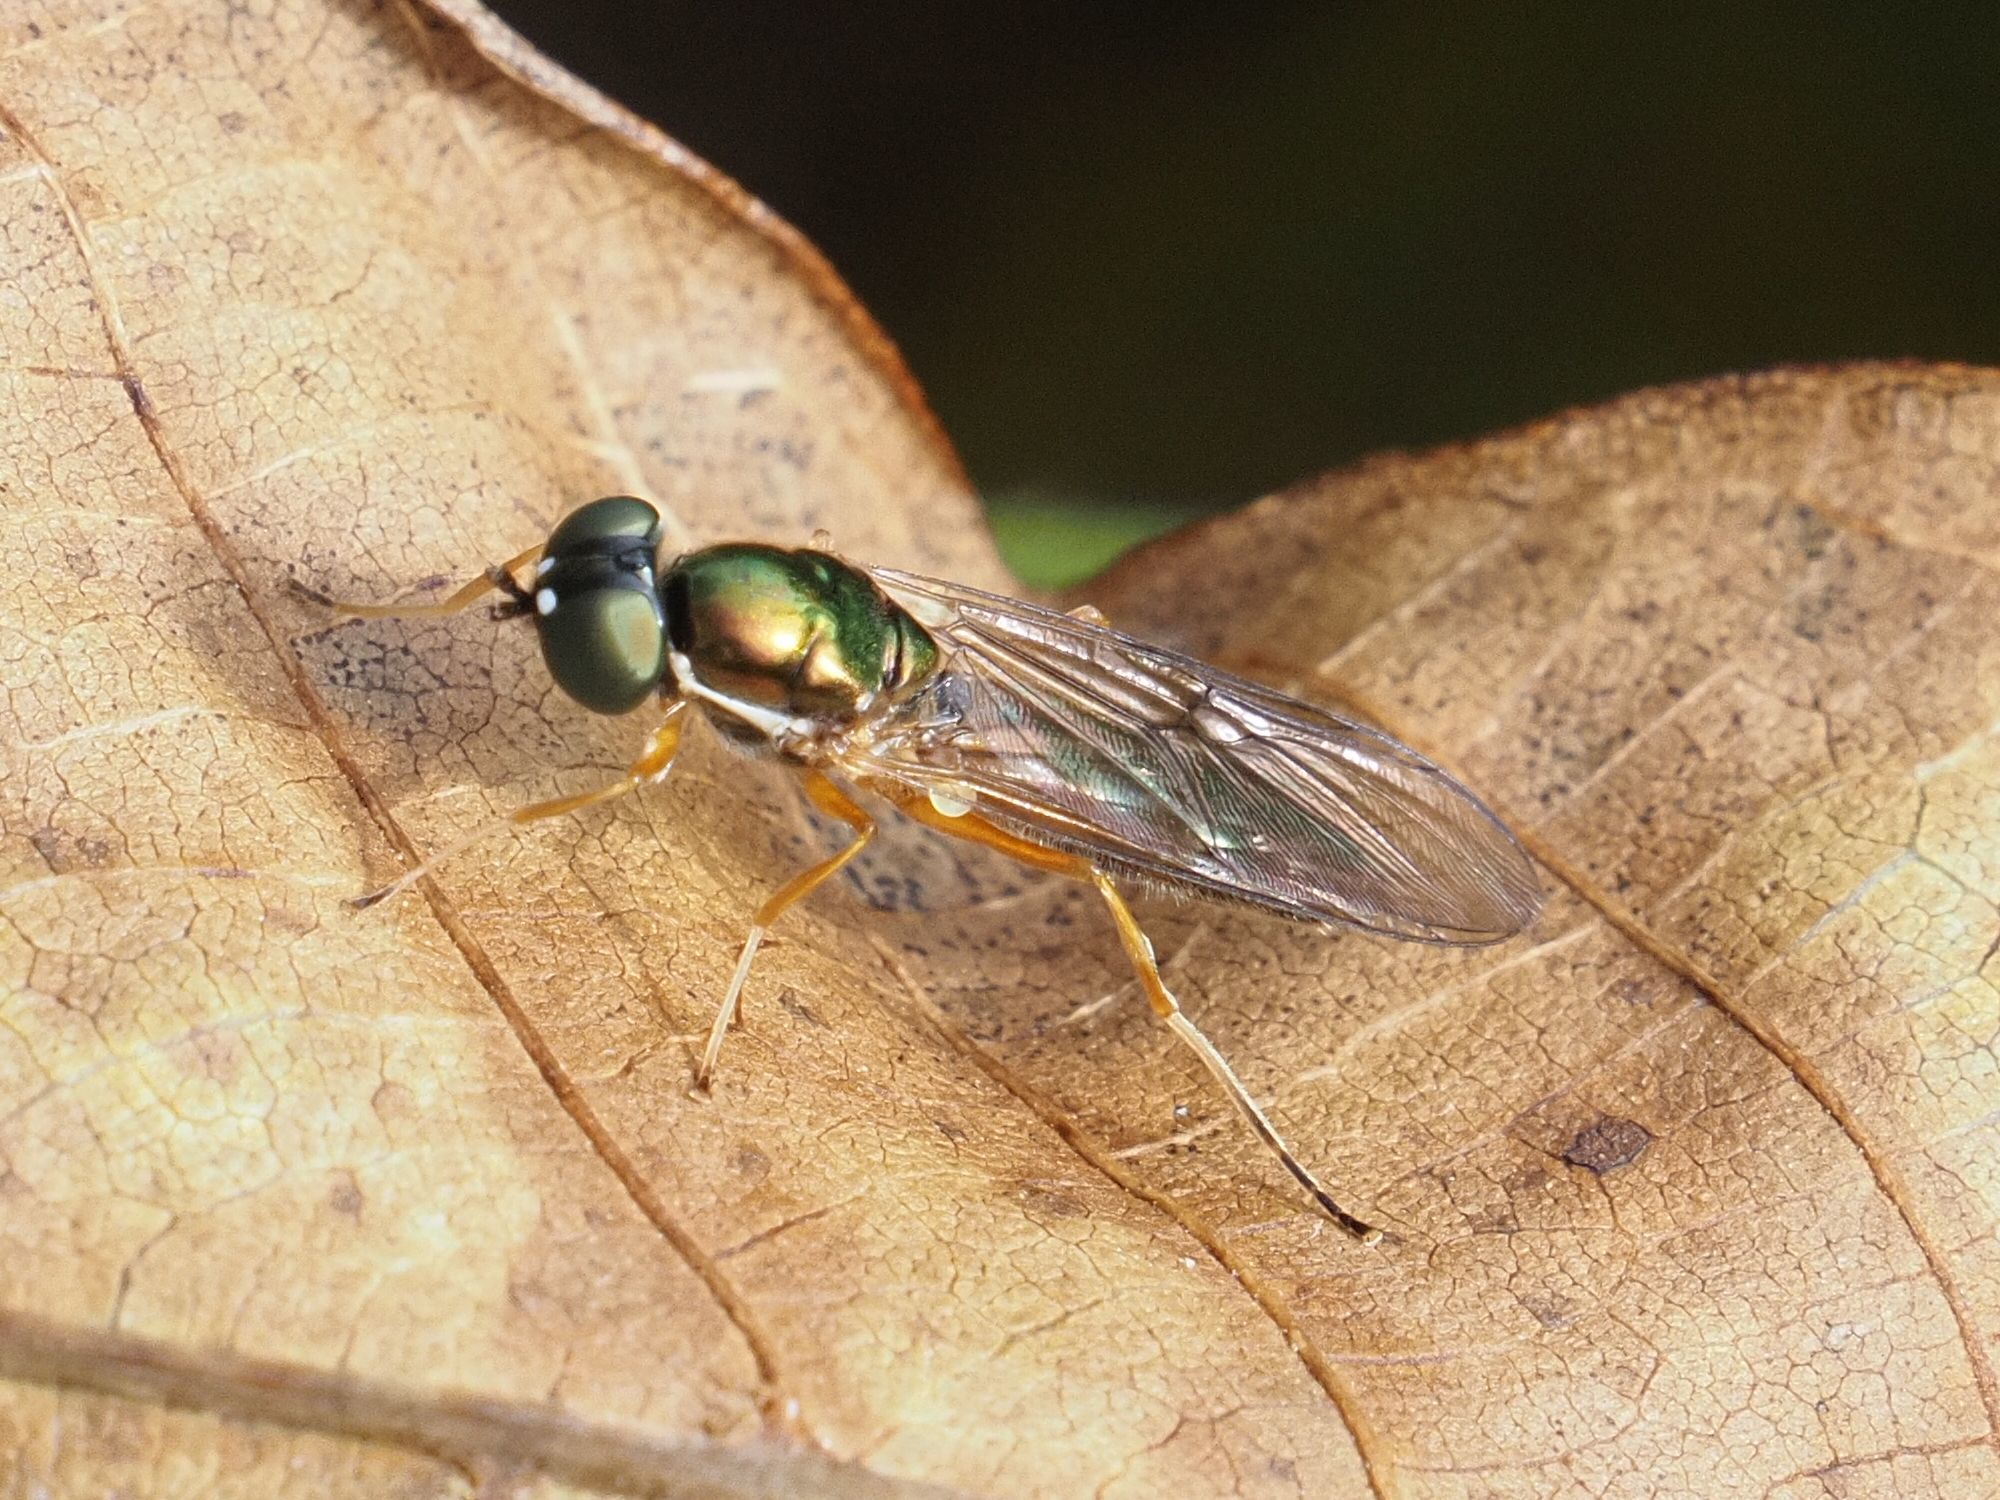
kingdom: Animalia
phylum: Arthropoda
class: Insecta
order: Diptera
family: Stratiomyidae
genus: Sargus
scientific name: Sargus bipunctatus
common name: Twin-spot centurion
